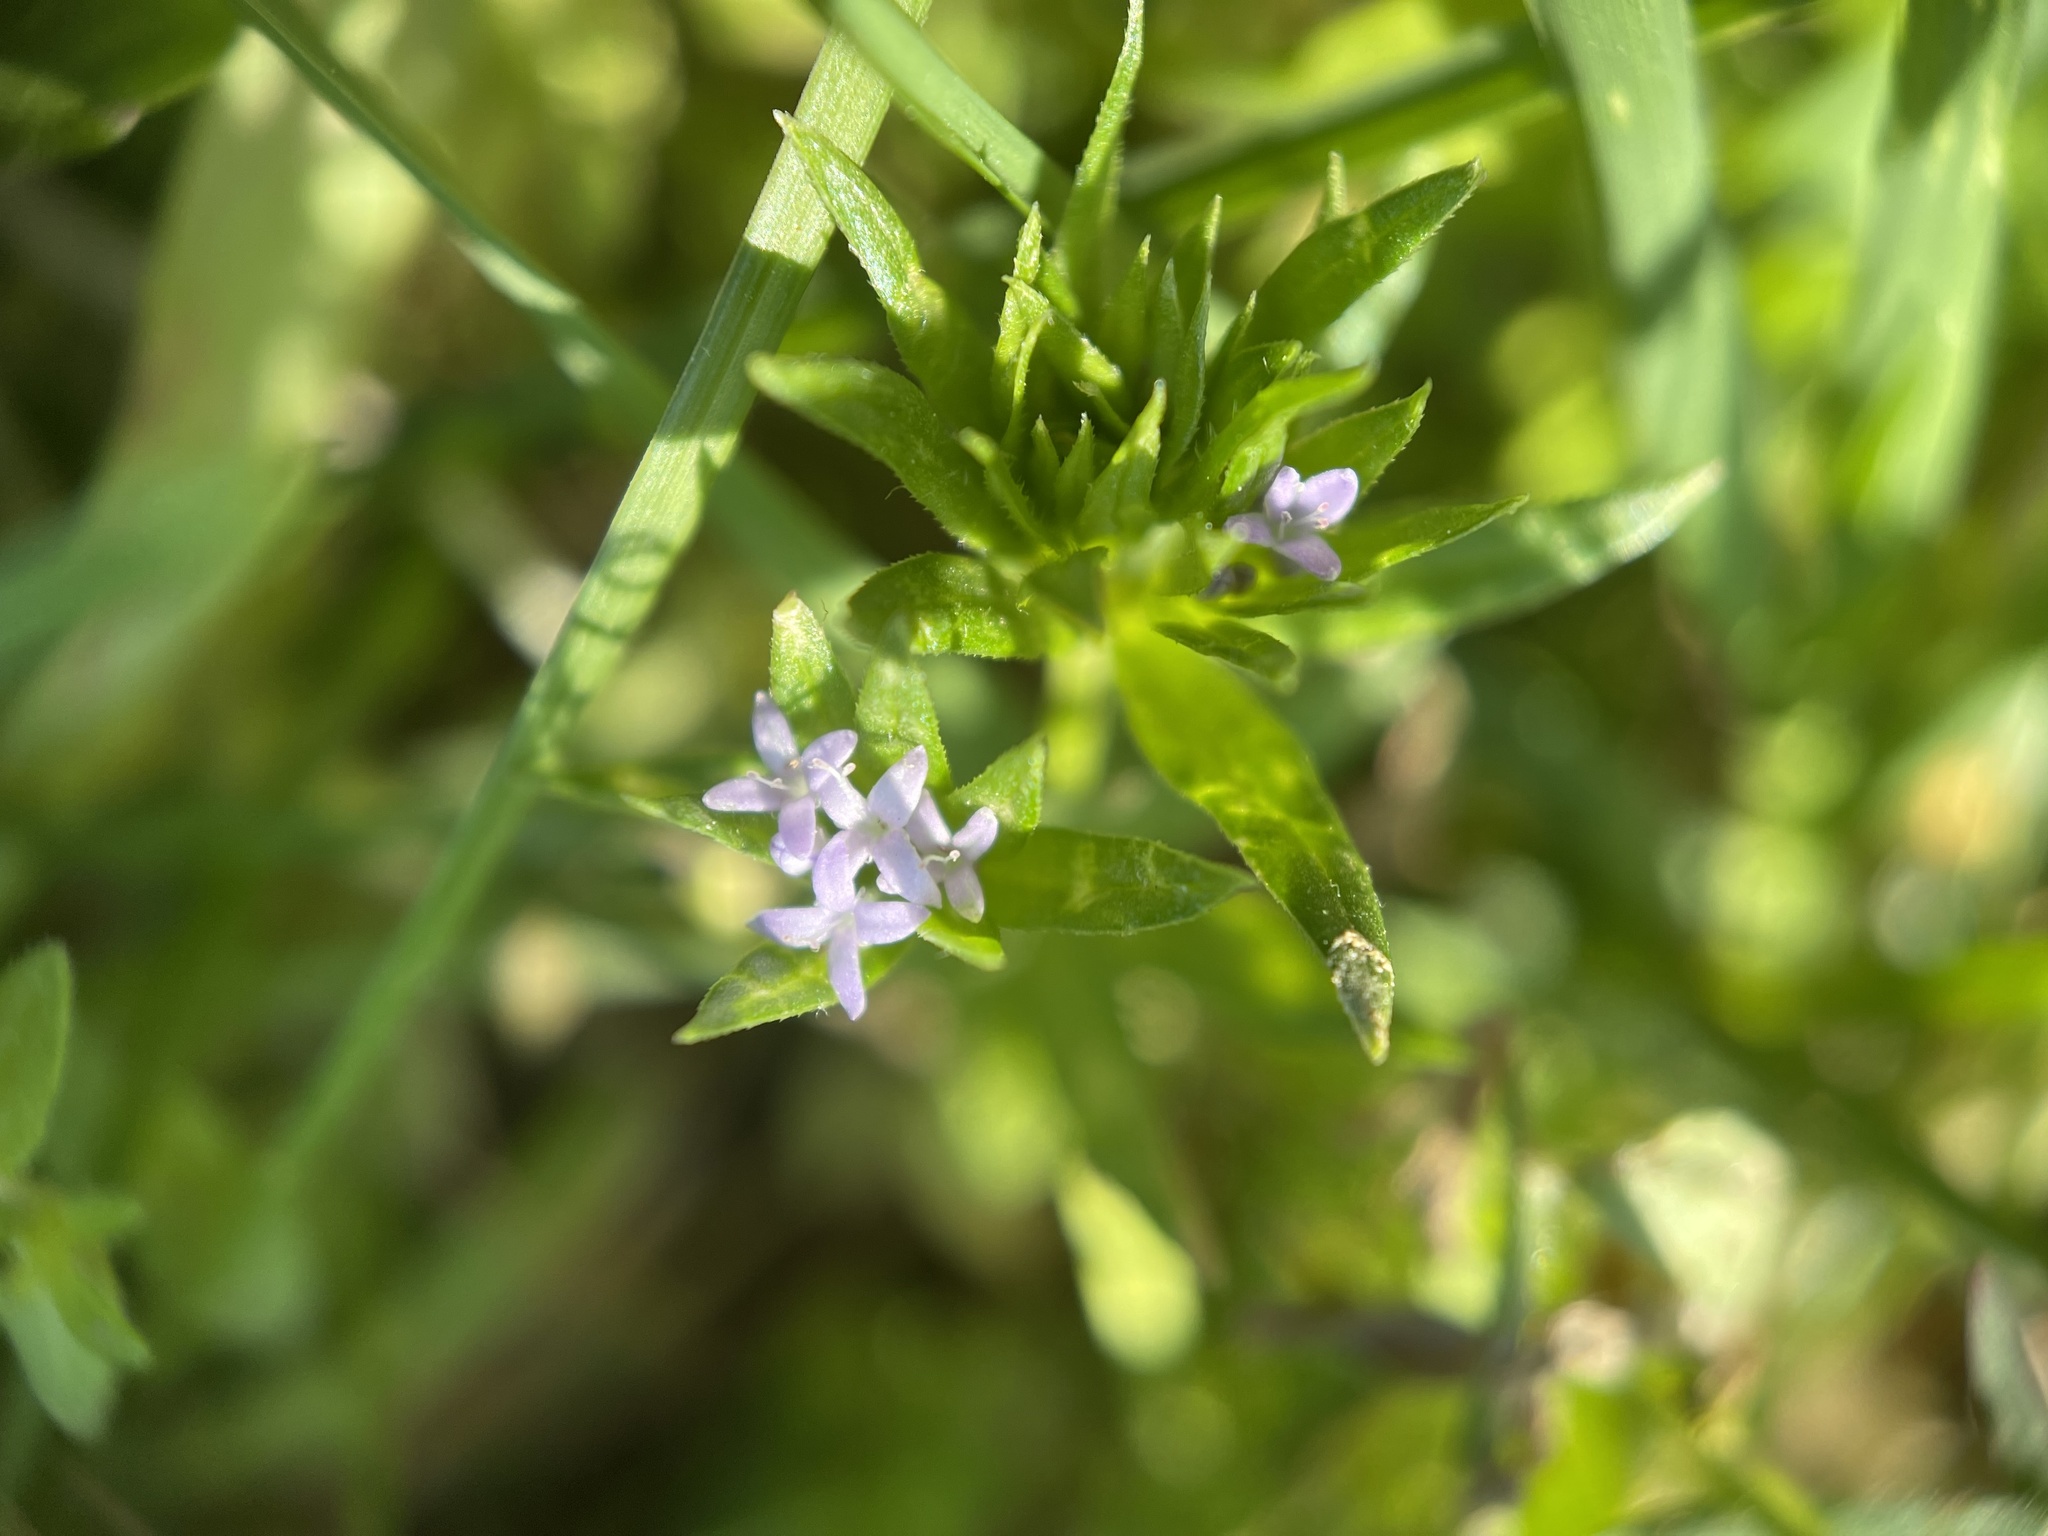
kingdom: Plantae
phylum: Tracheophyta
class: Magnoliopsida
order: Gentianales
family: Rubiaceae
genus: Sherardia
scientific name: Sherardia arvensis
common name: Field madder
